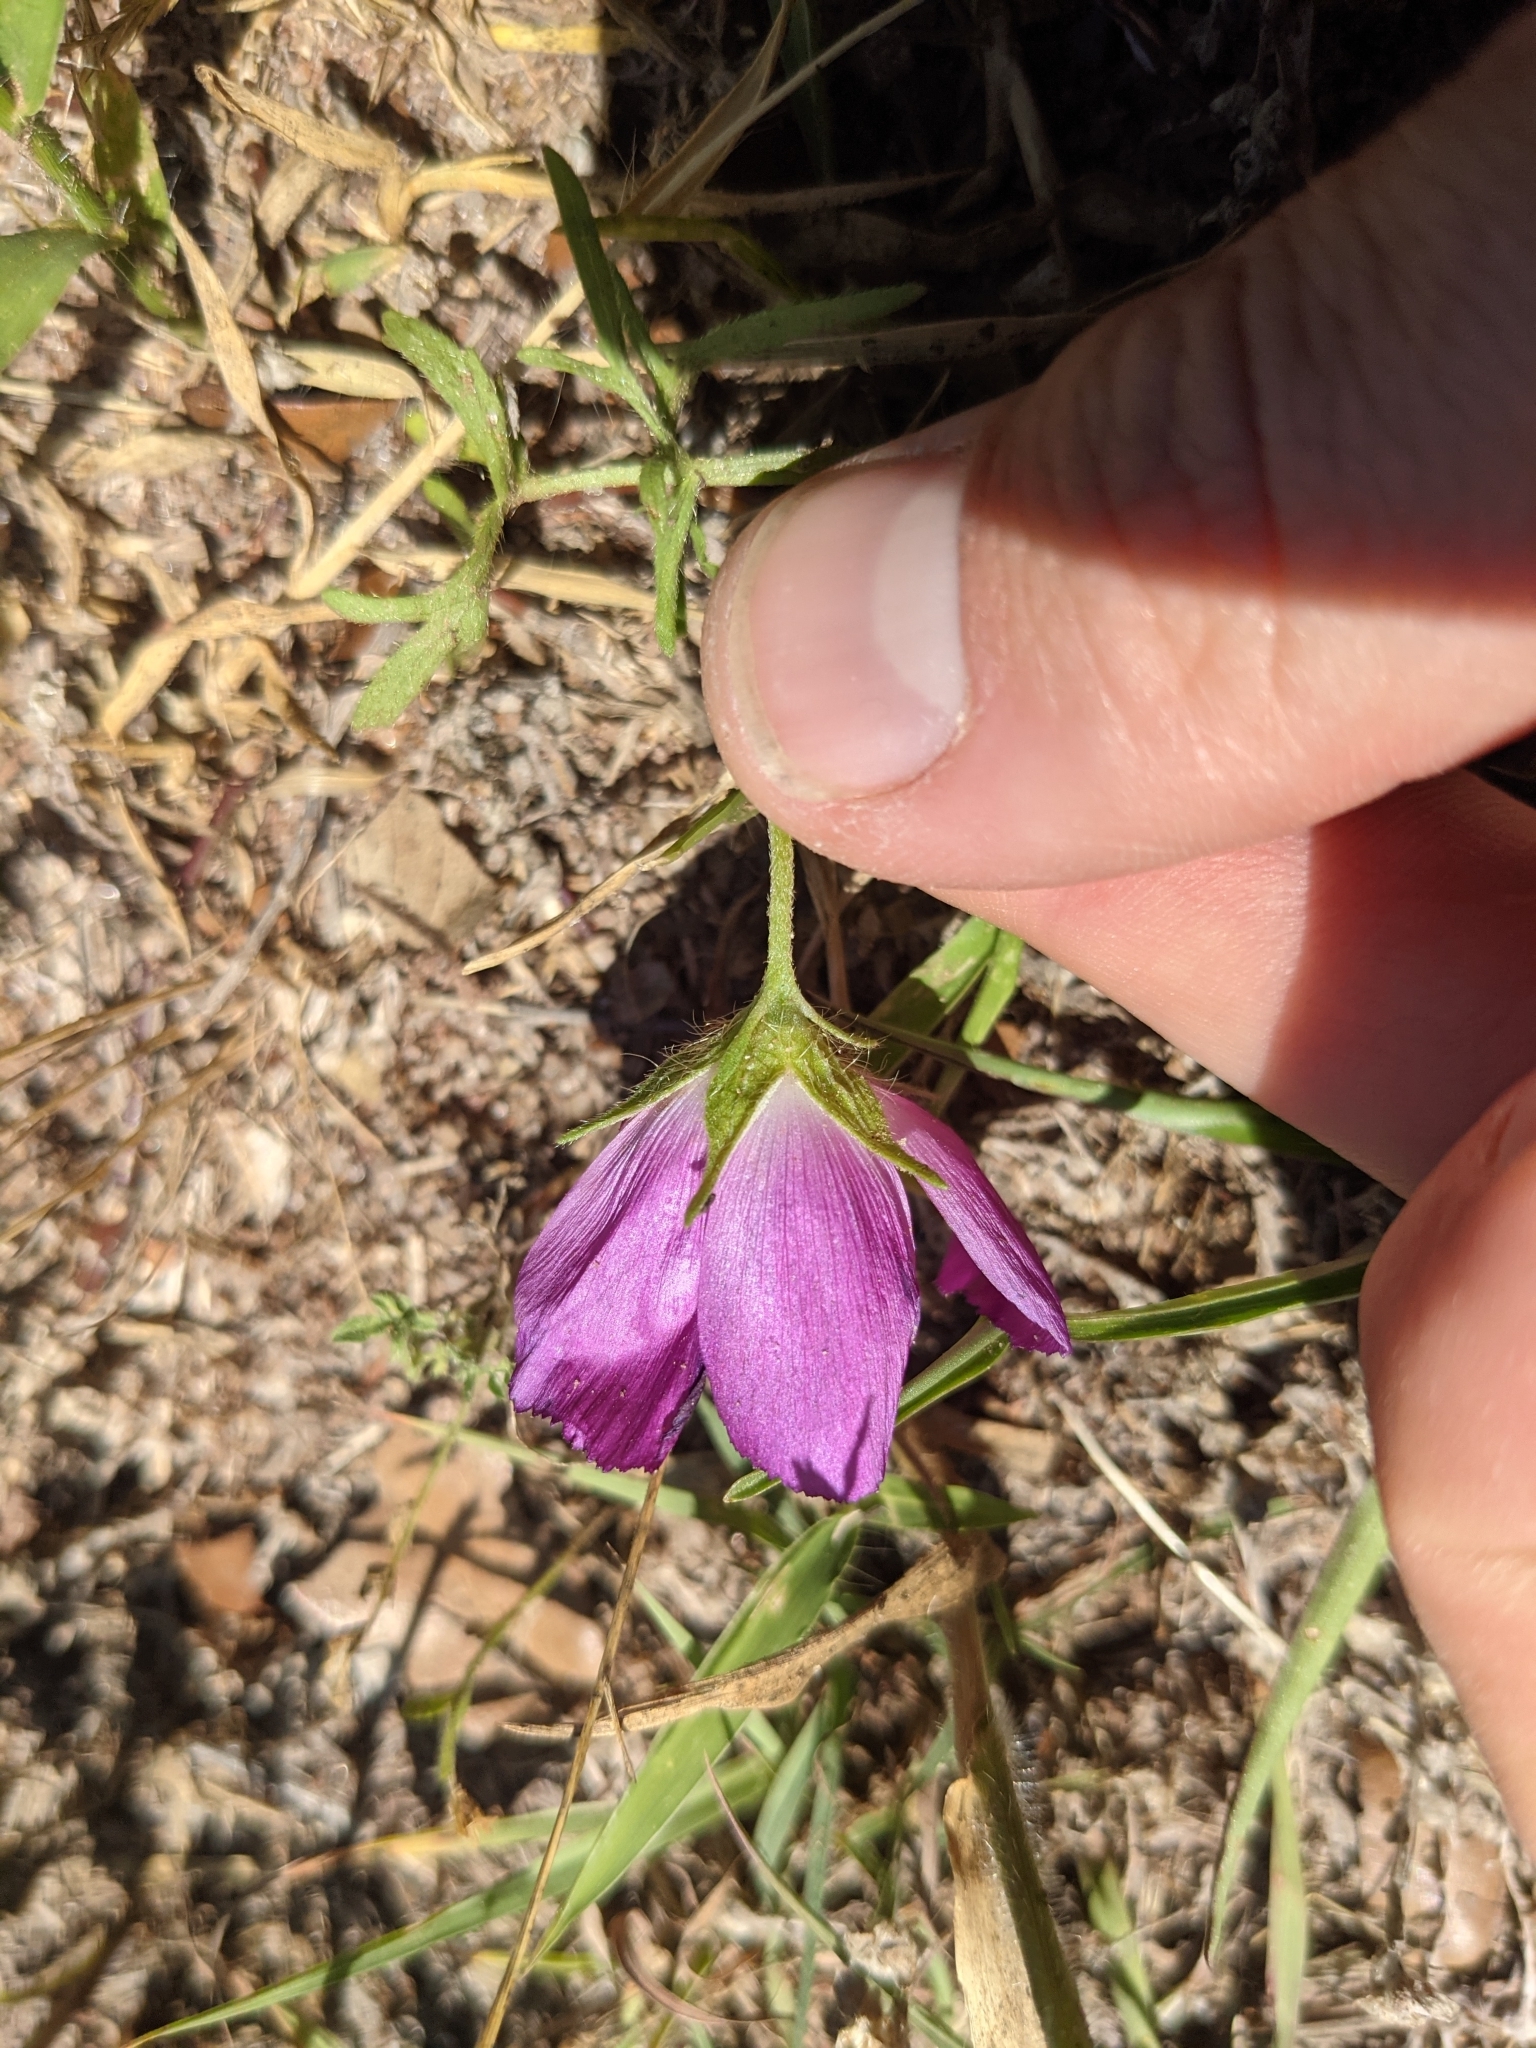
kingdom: Plantae
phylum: Tracheophyta
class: Magnoliopsida
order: Malvales
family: Malvaceae
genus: Callirhoe
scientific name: Callirhoe involucrata
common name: Purple poppy-mallow
